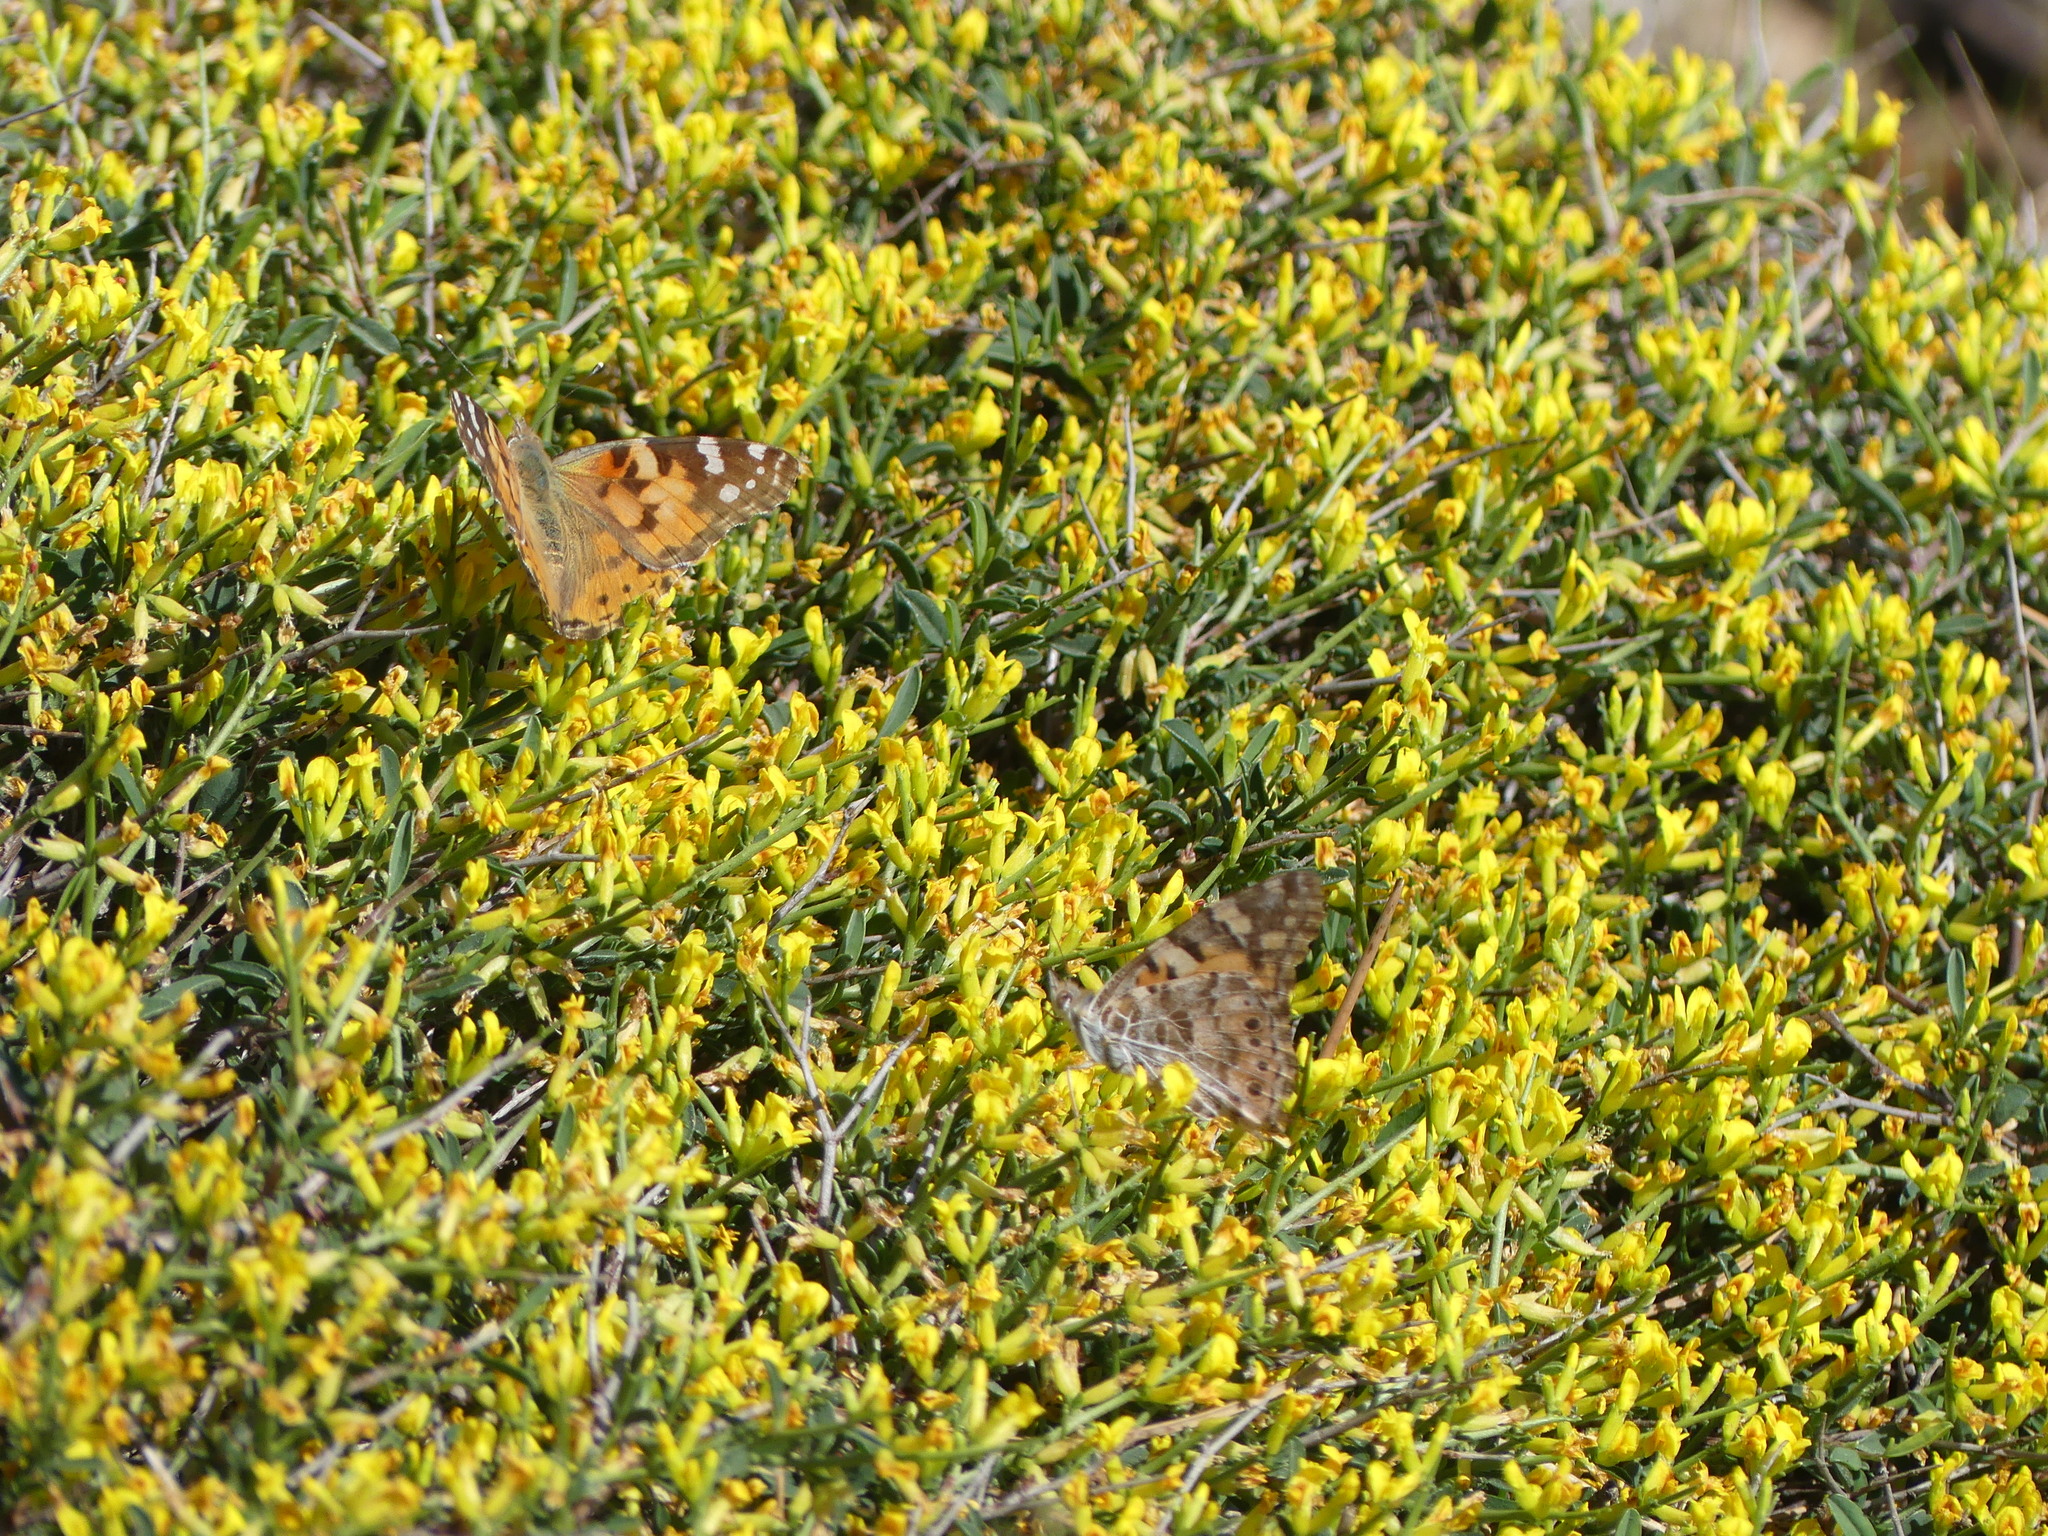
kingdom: Animalia
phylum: Arthropoda
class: Insecta
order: Lepidoptera
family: Nymphalidae
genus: Vanessa
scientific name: Vanessa cardui
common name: Painted lady
